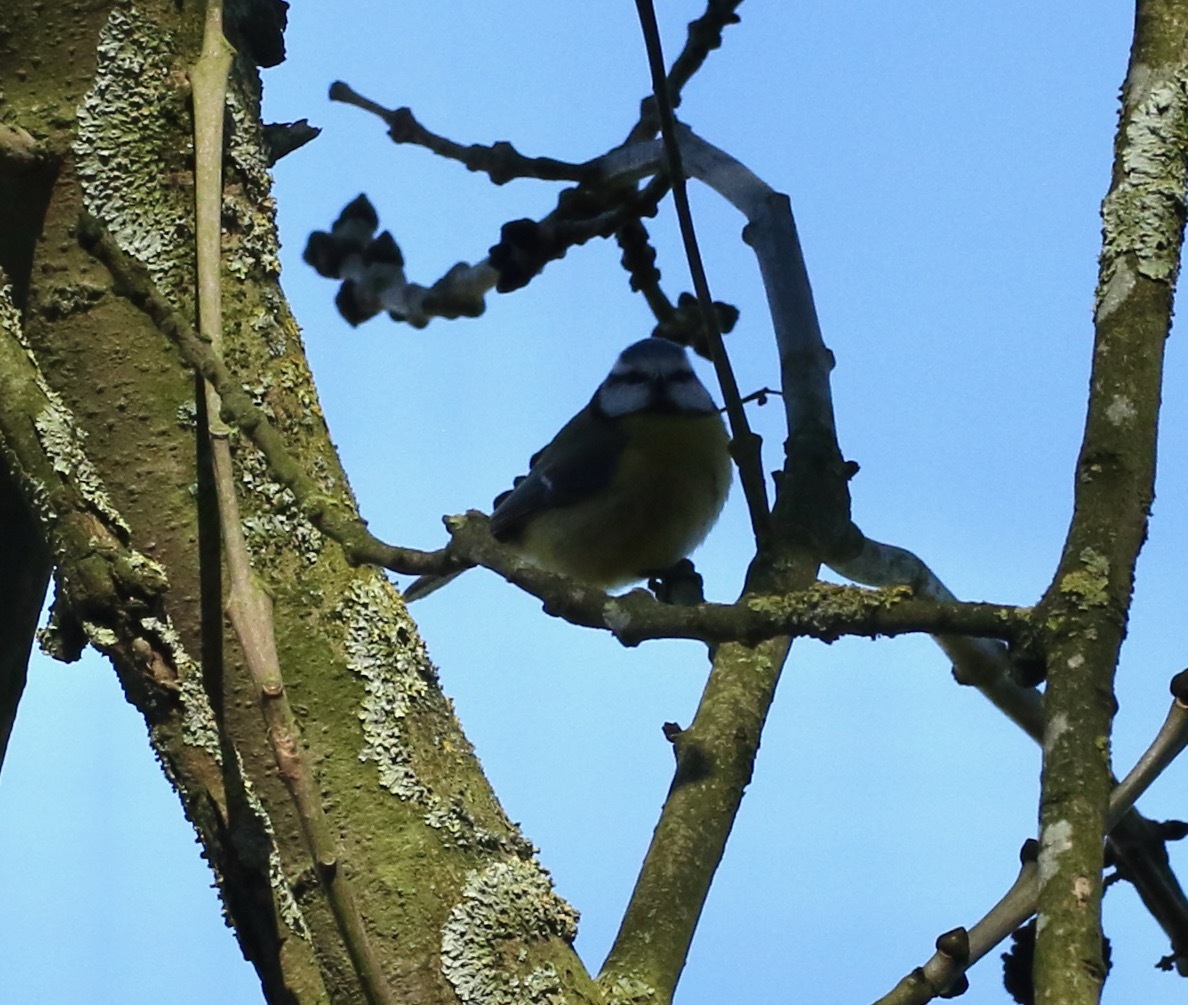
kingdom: Animalia
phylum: Chordata
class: Aves
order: Passeriformes
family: Paridae
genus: Cyanistes
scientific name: Cyanistes caeruleus
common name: Eurasian blue tit
